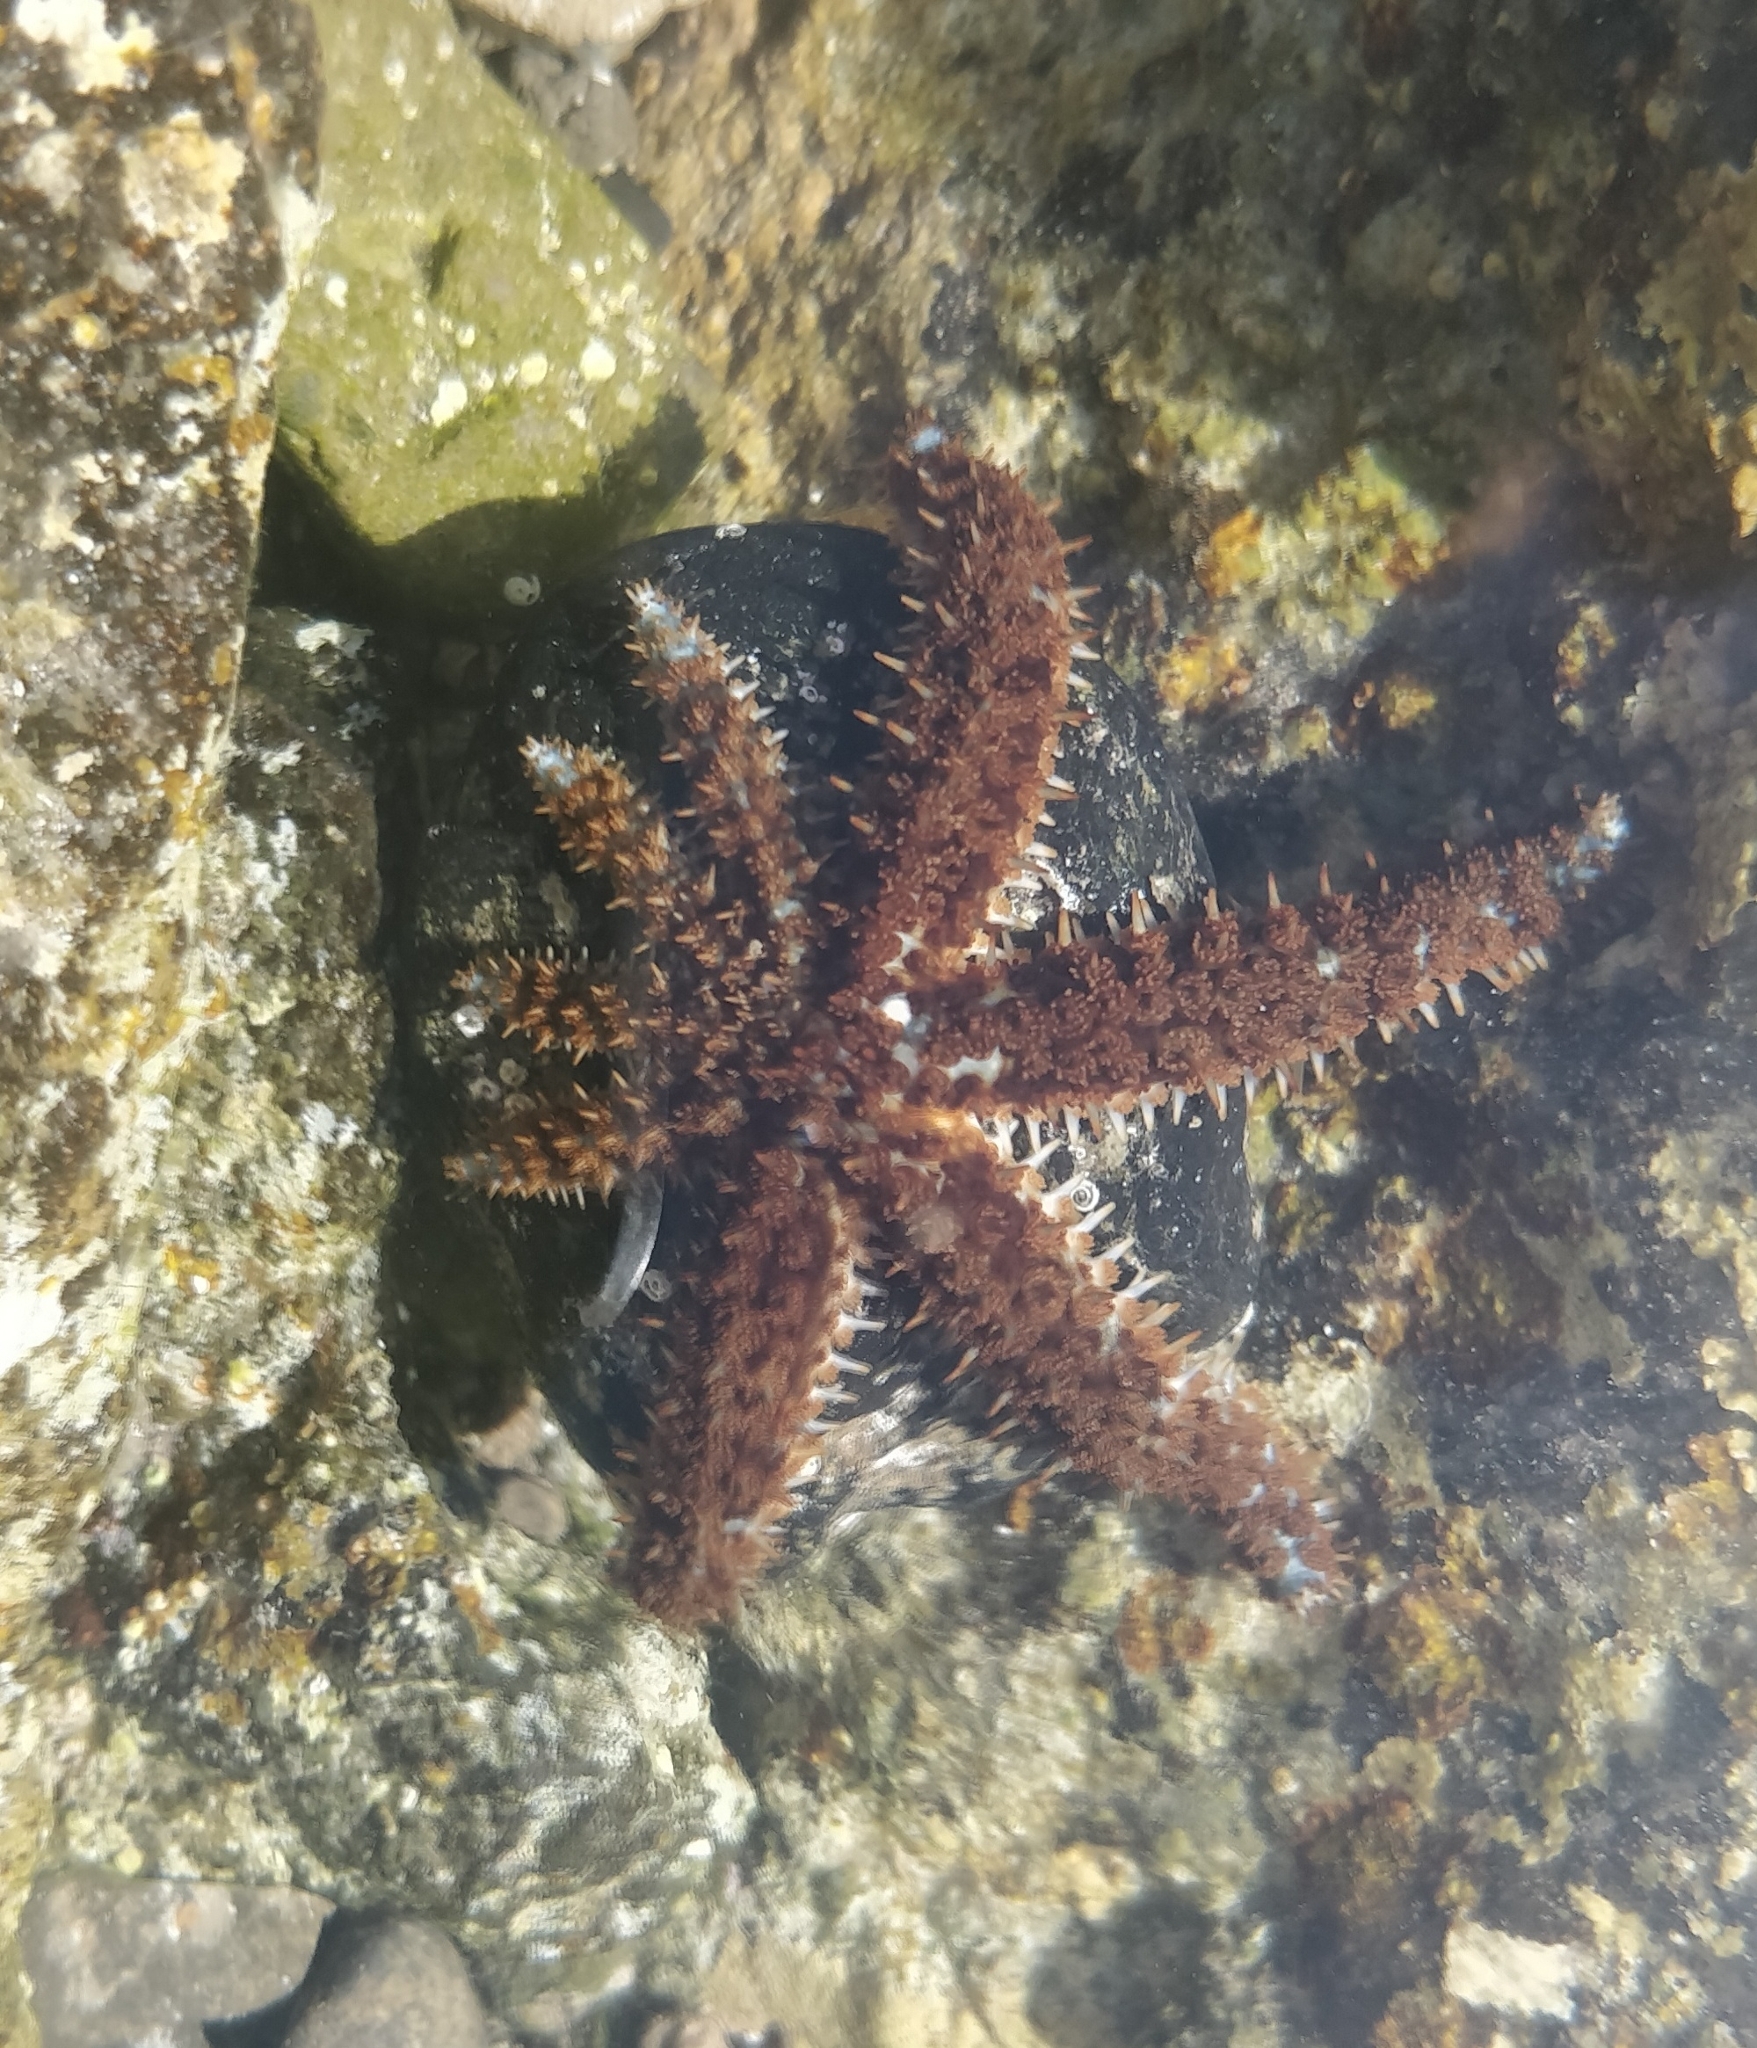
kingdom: Animalia
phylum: Echinodermata
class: Asteroidea
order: Forcipulatida
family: Asteriidae
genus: Coscinasterias
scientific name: Coscinasterias tenuispina
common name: Blue spiny starfish
